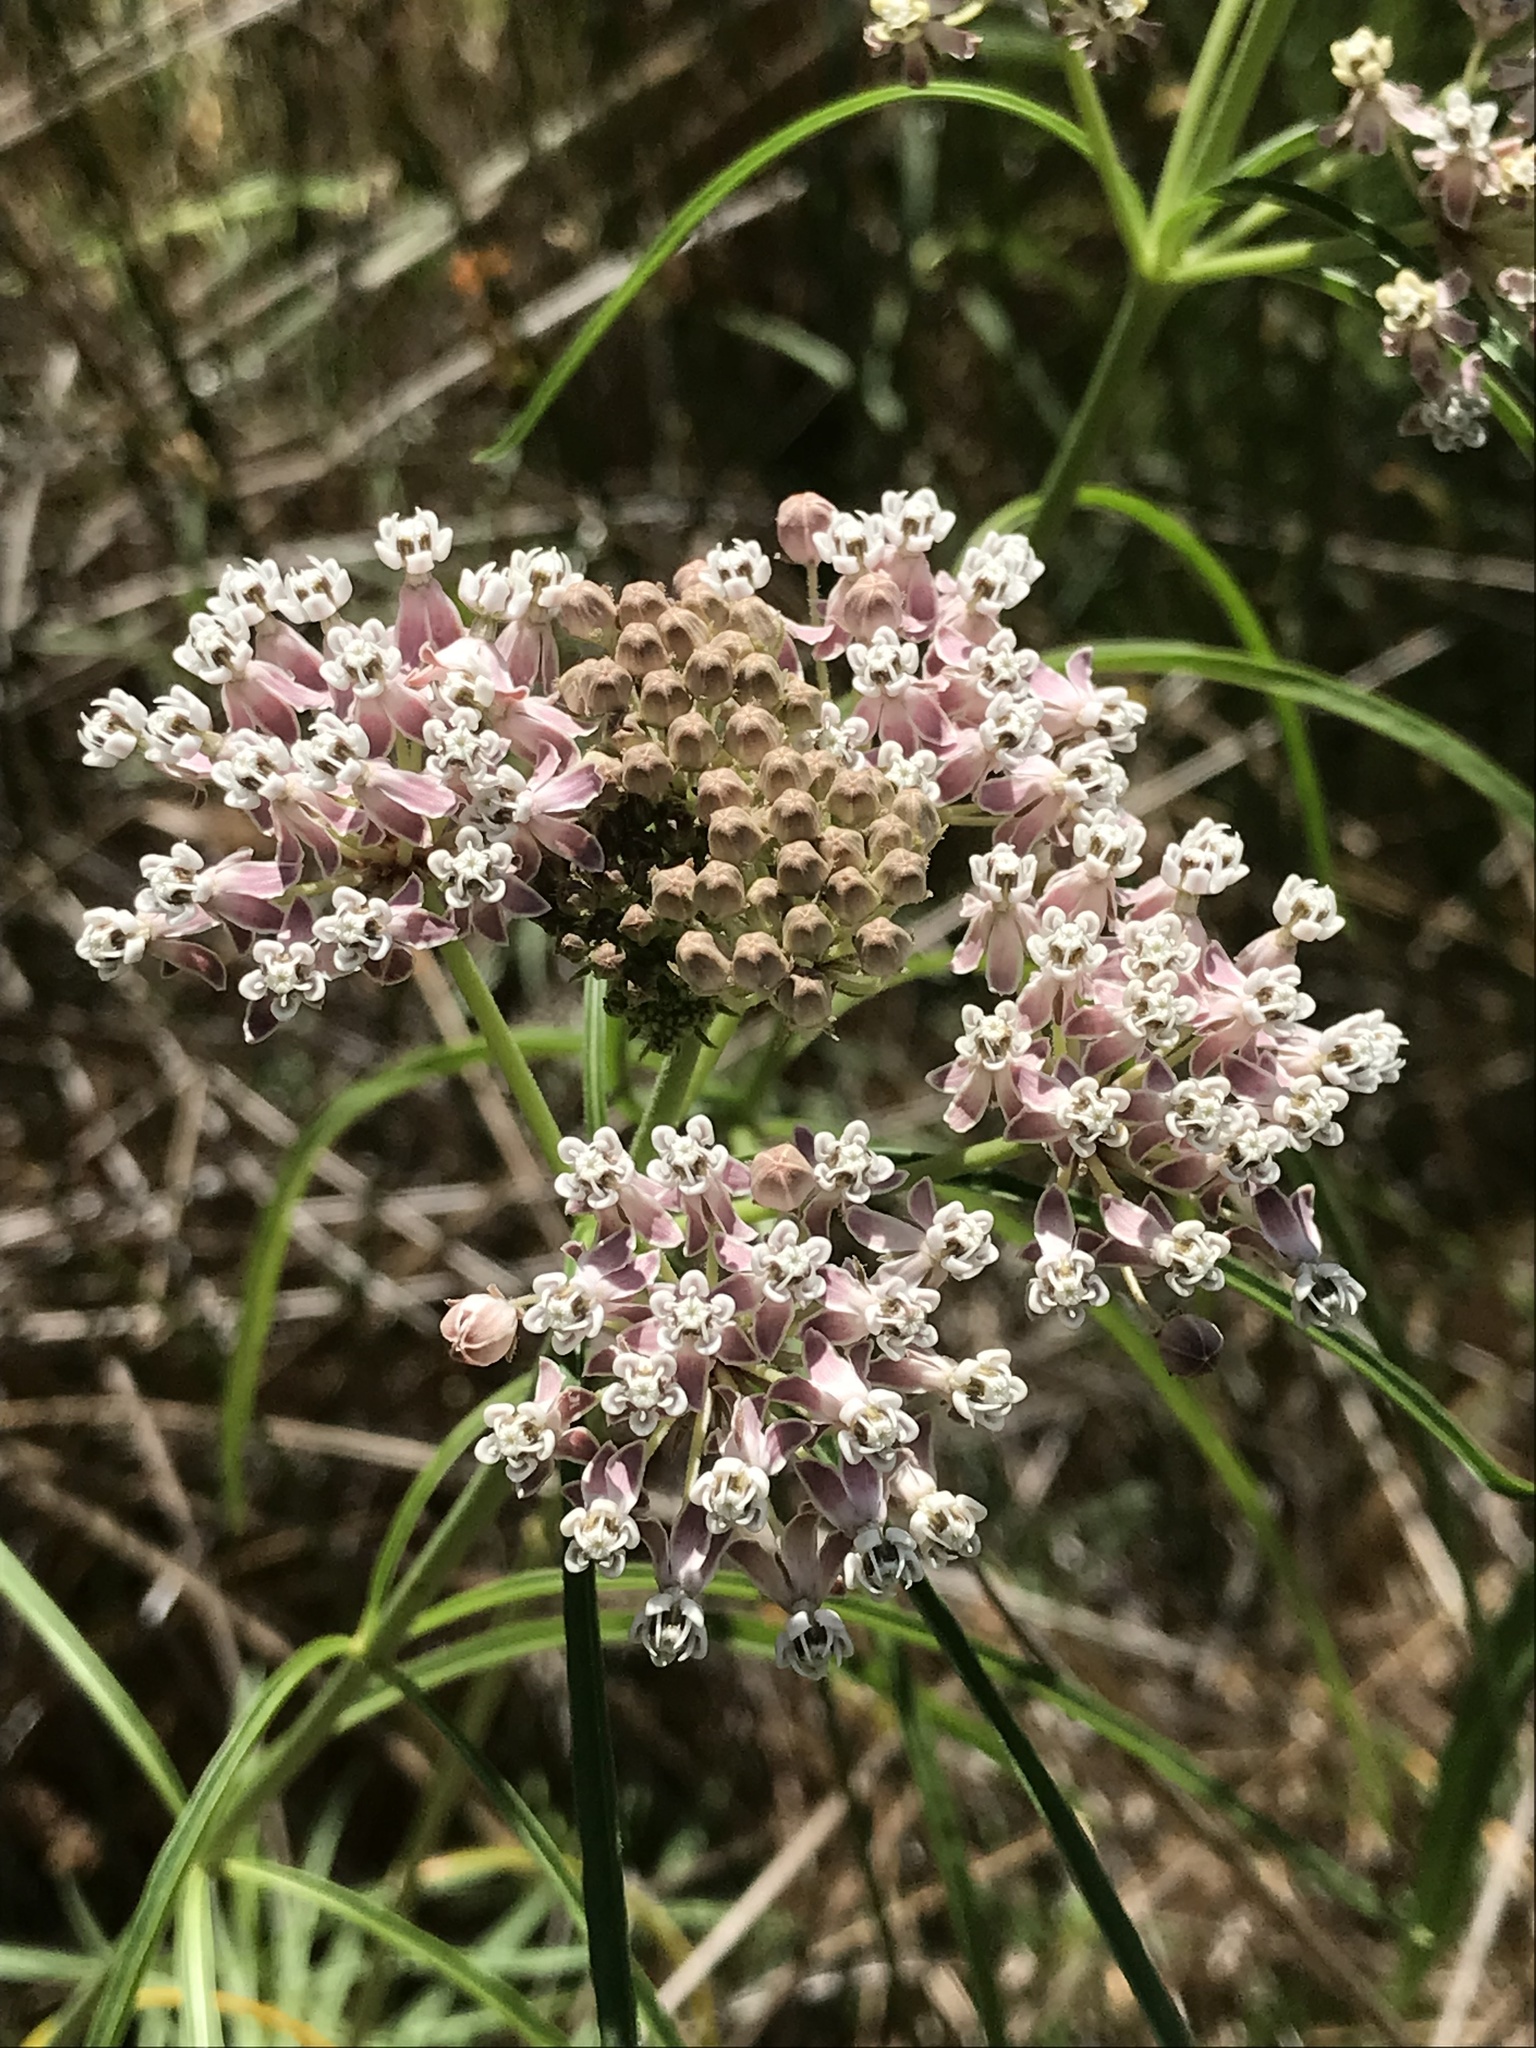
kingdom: Plantae
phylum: Tracheophyta
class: Magnoliopsida
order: Gentianales
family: Apocynaceae
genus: Asclepias
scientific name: Asclepias fascicularis
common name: Mexican milkweed
